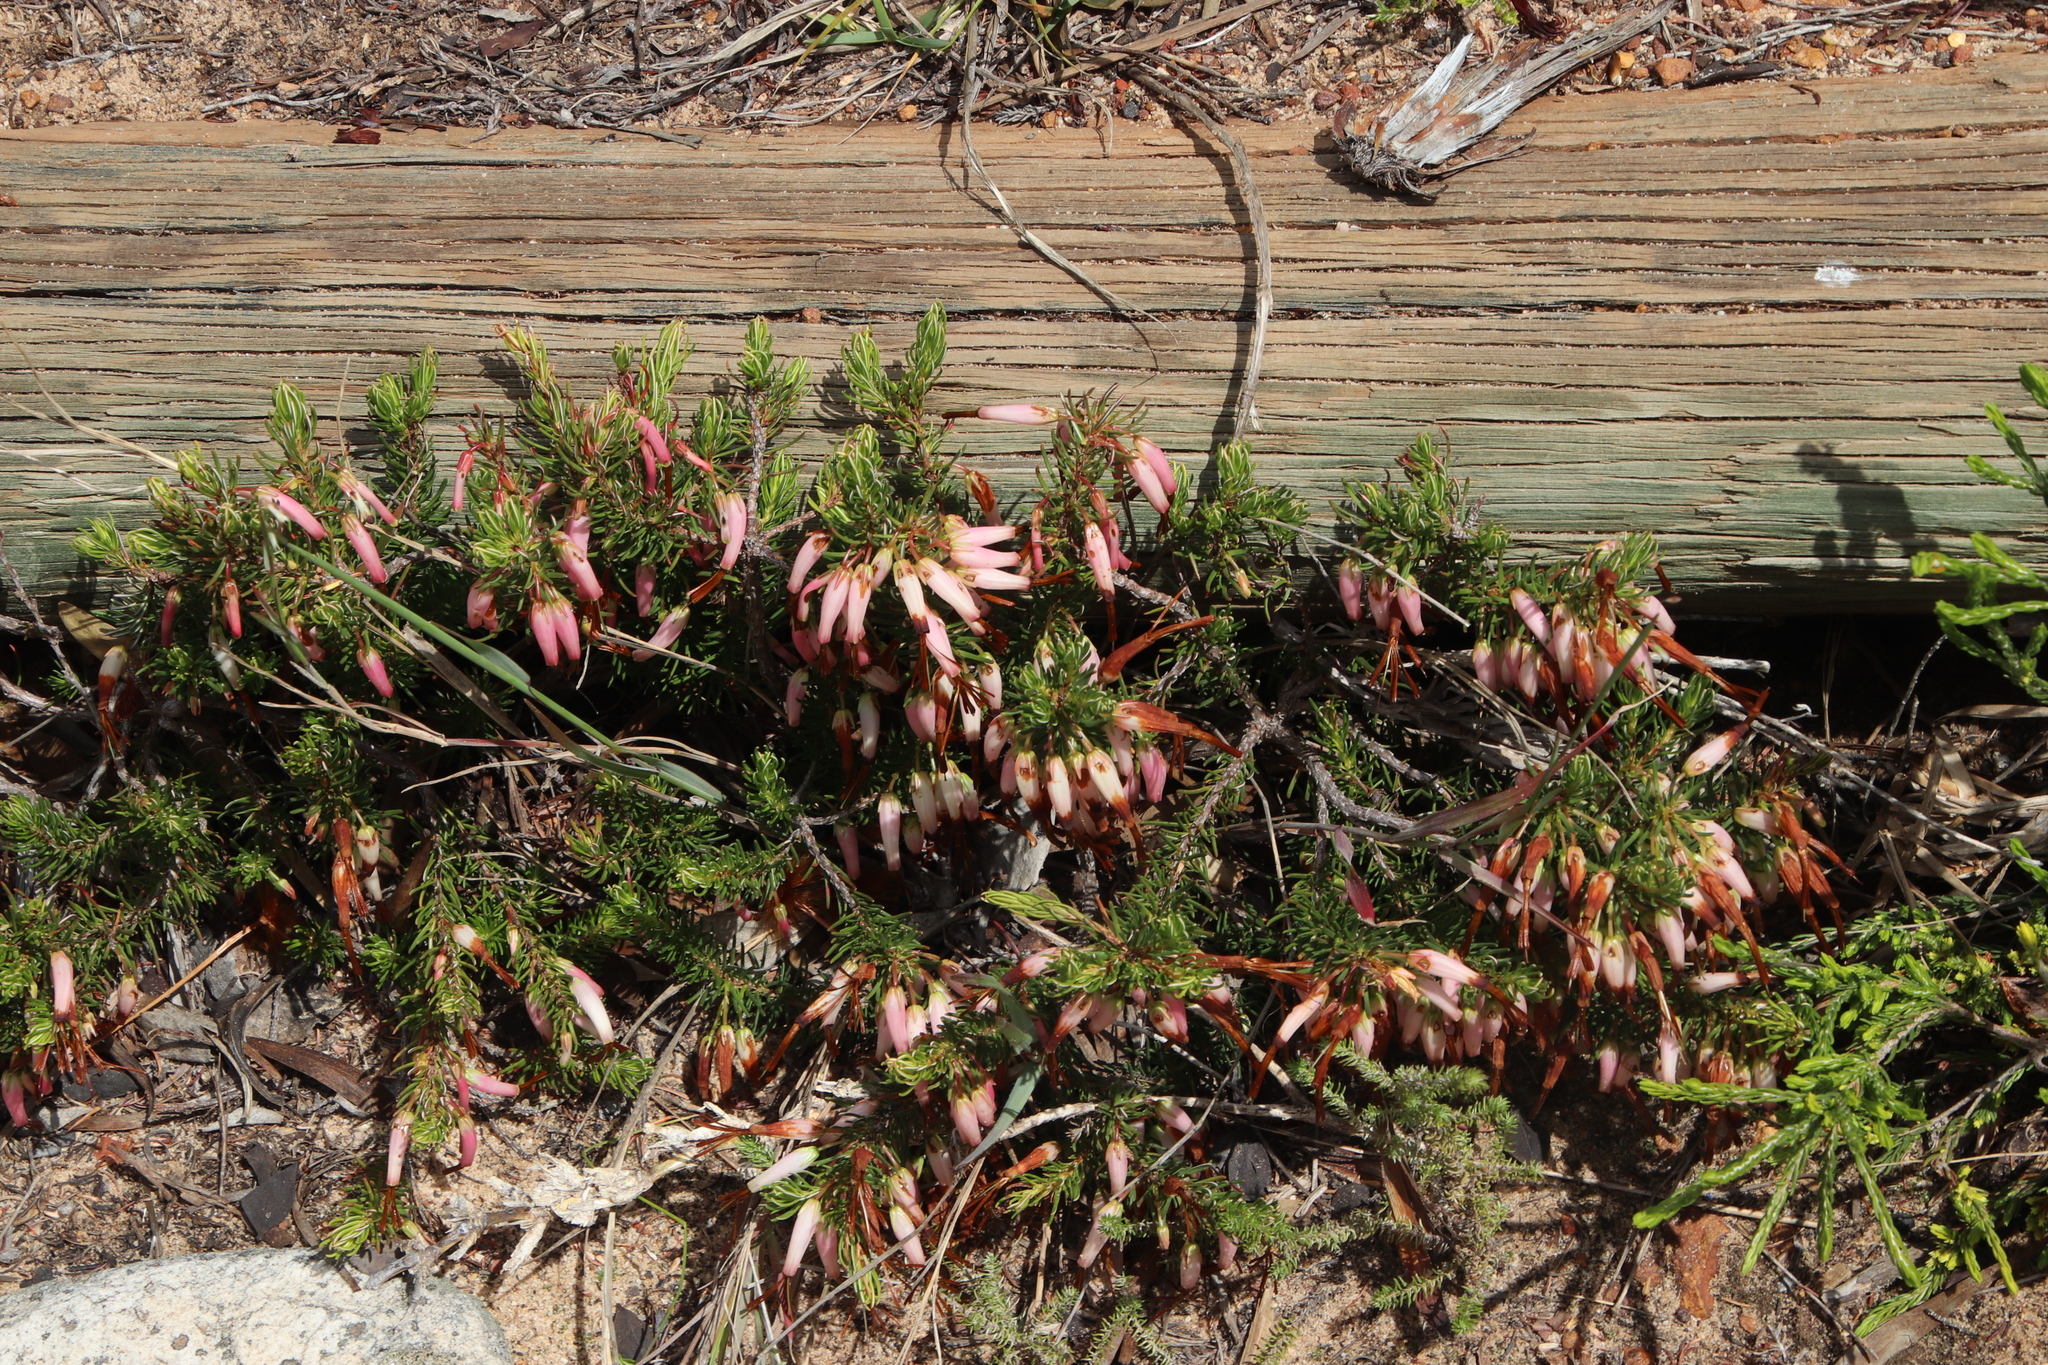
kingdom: Plantae
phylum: Tracheophyta
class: Magnoliopsida
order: Ericales
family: Ericaceae
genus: Erica
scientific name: Erica plukenetii
